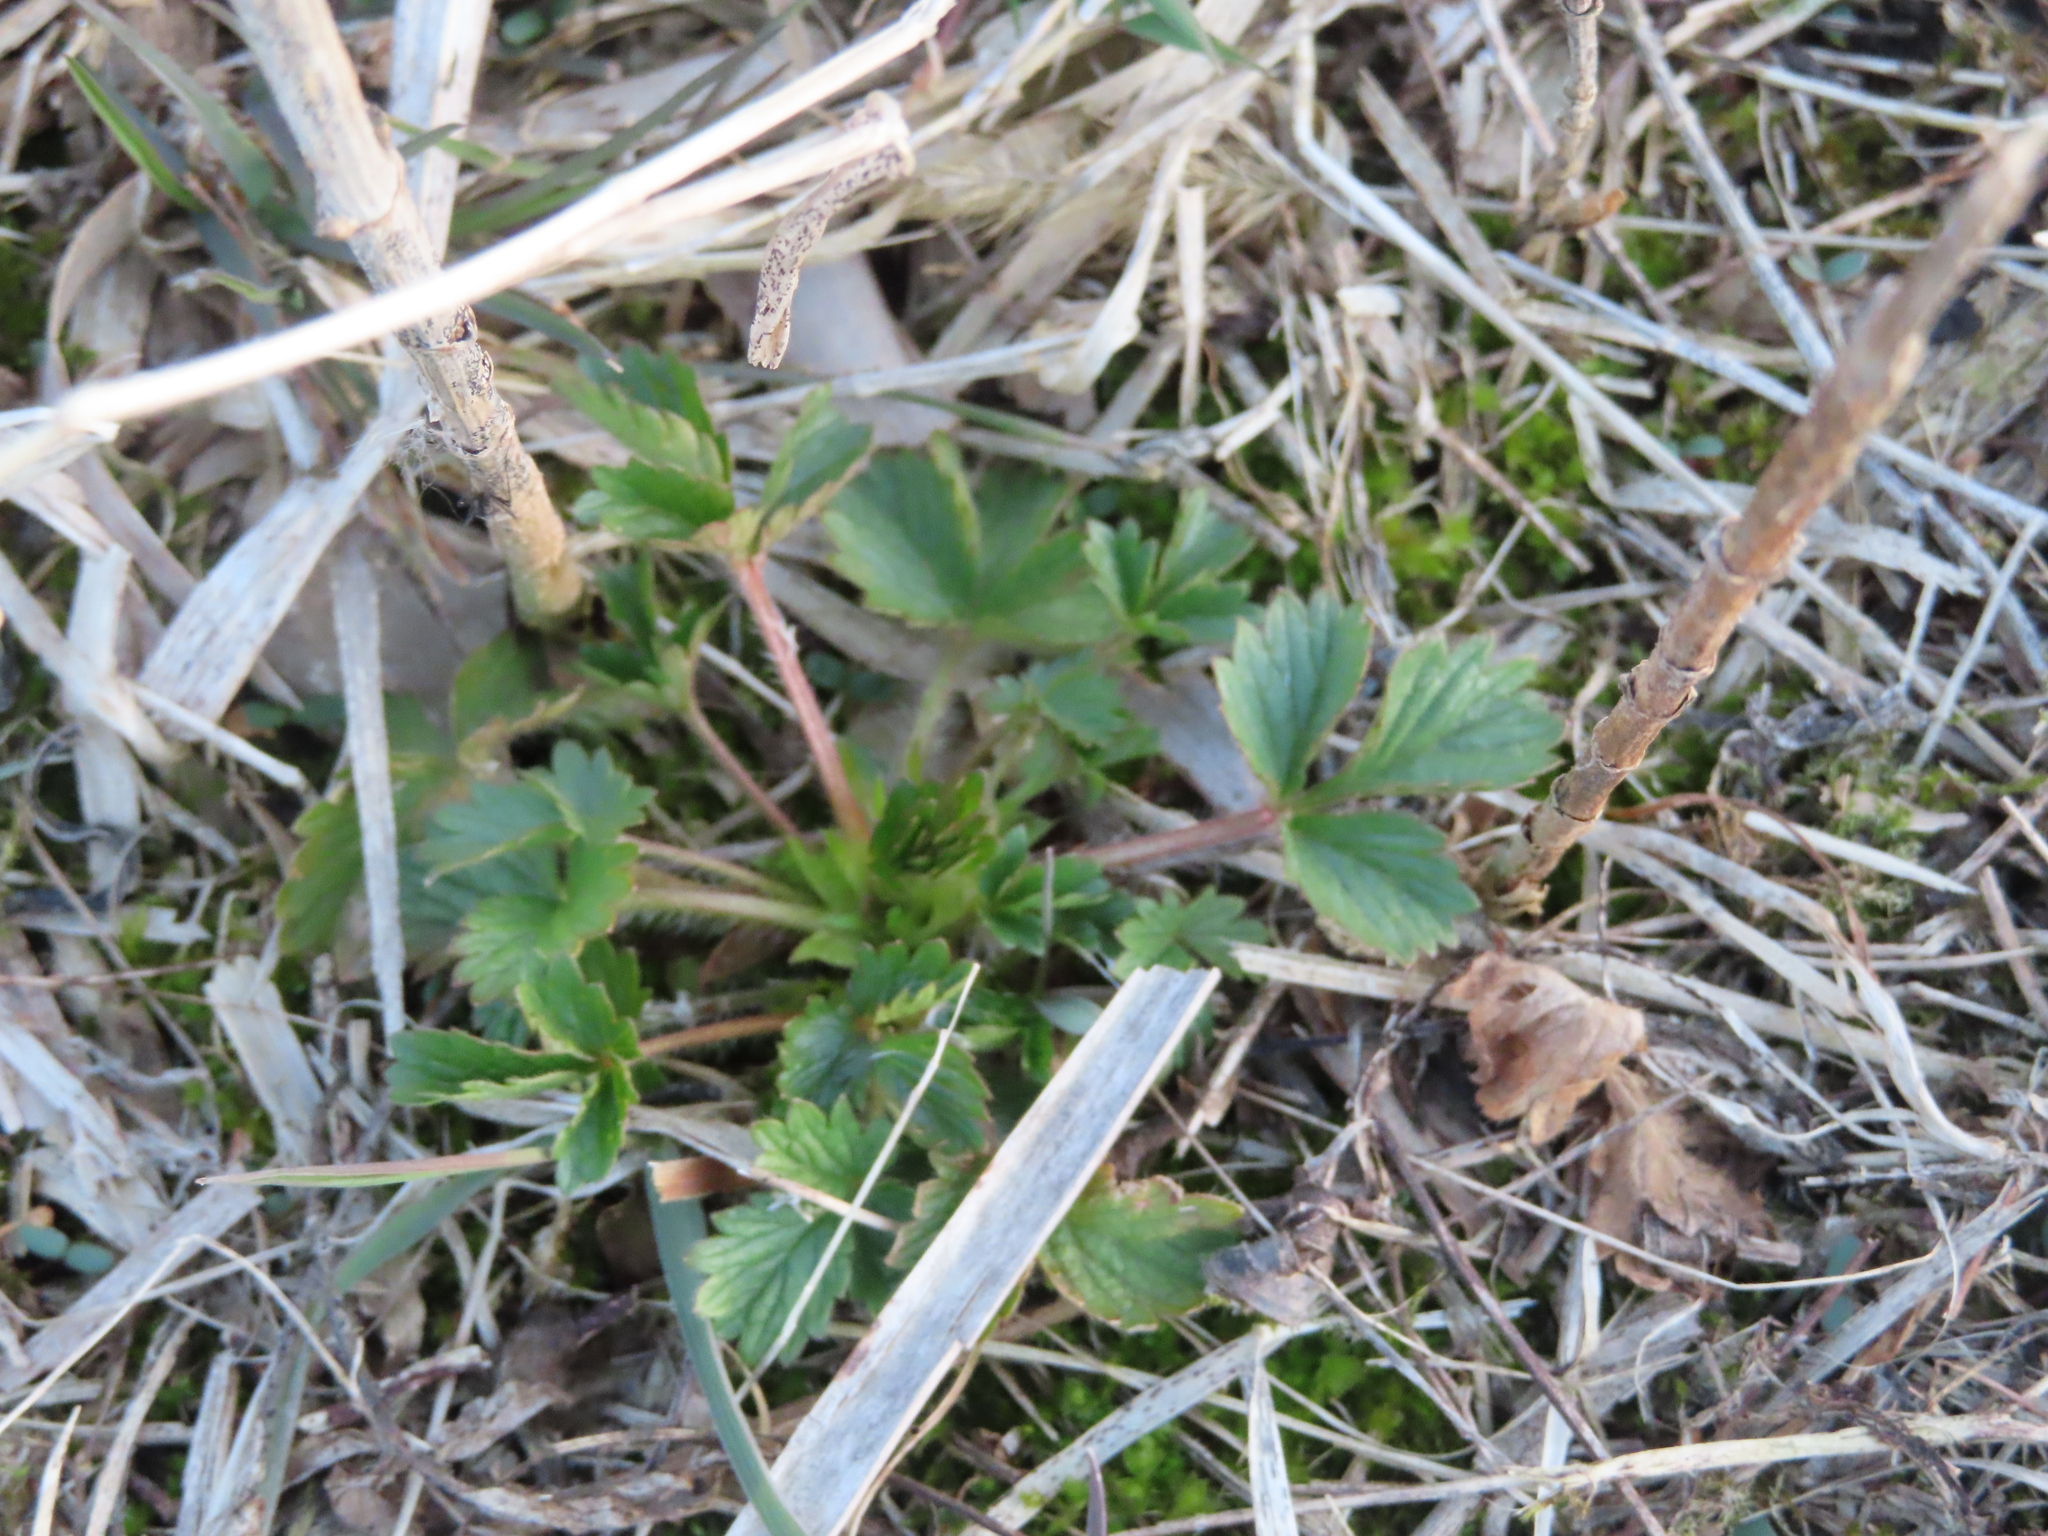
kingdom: Plantae
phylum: Tracheophyta
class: Magnoliopsida
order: Rosales
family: Rosaceae
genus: Potentilla
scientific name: Potentilla norvegica
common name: Ternate-leaved cinquefoil
